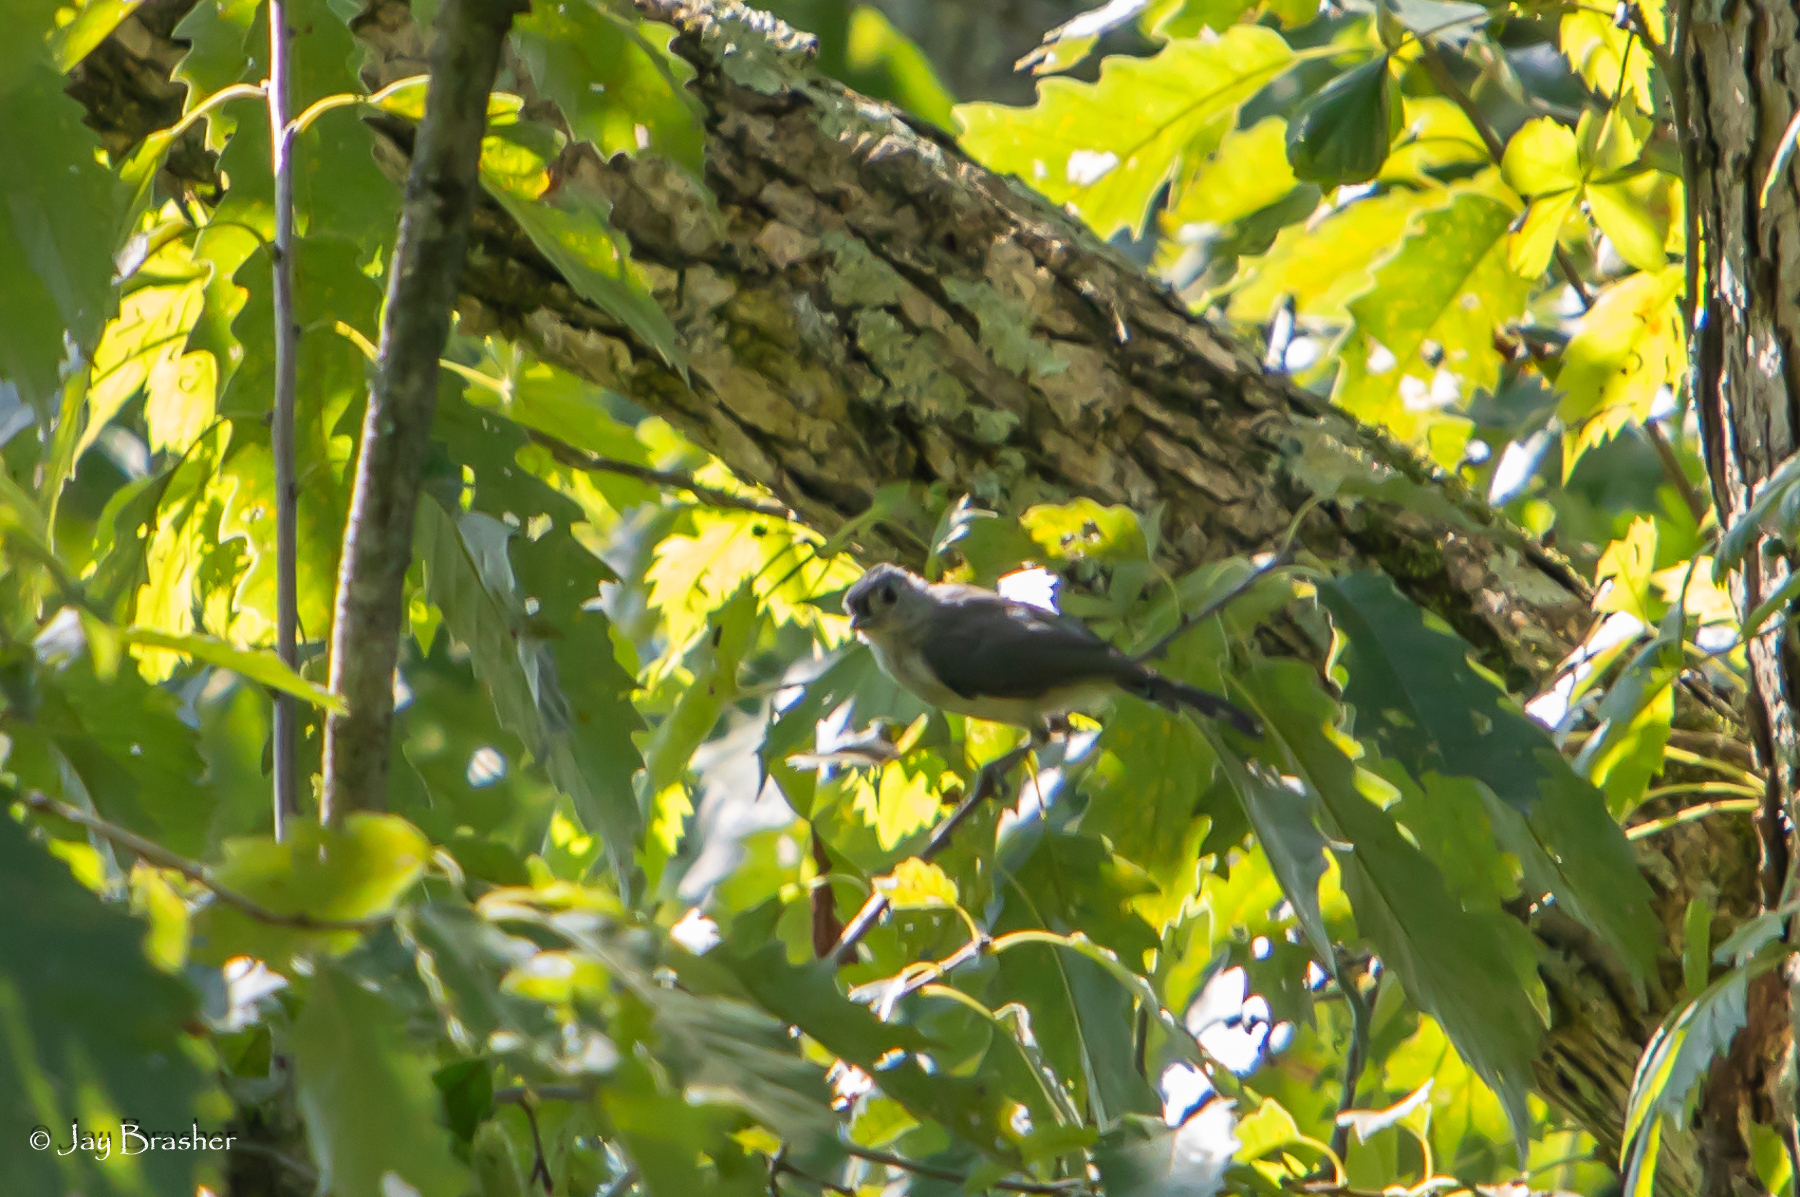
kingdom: Animalia
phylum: Chordata
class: Aves
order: Passeriformes
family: Paridae
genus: Baeolophus
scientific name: Baeolophus bicolor
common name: Tufted titmouse
